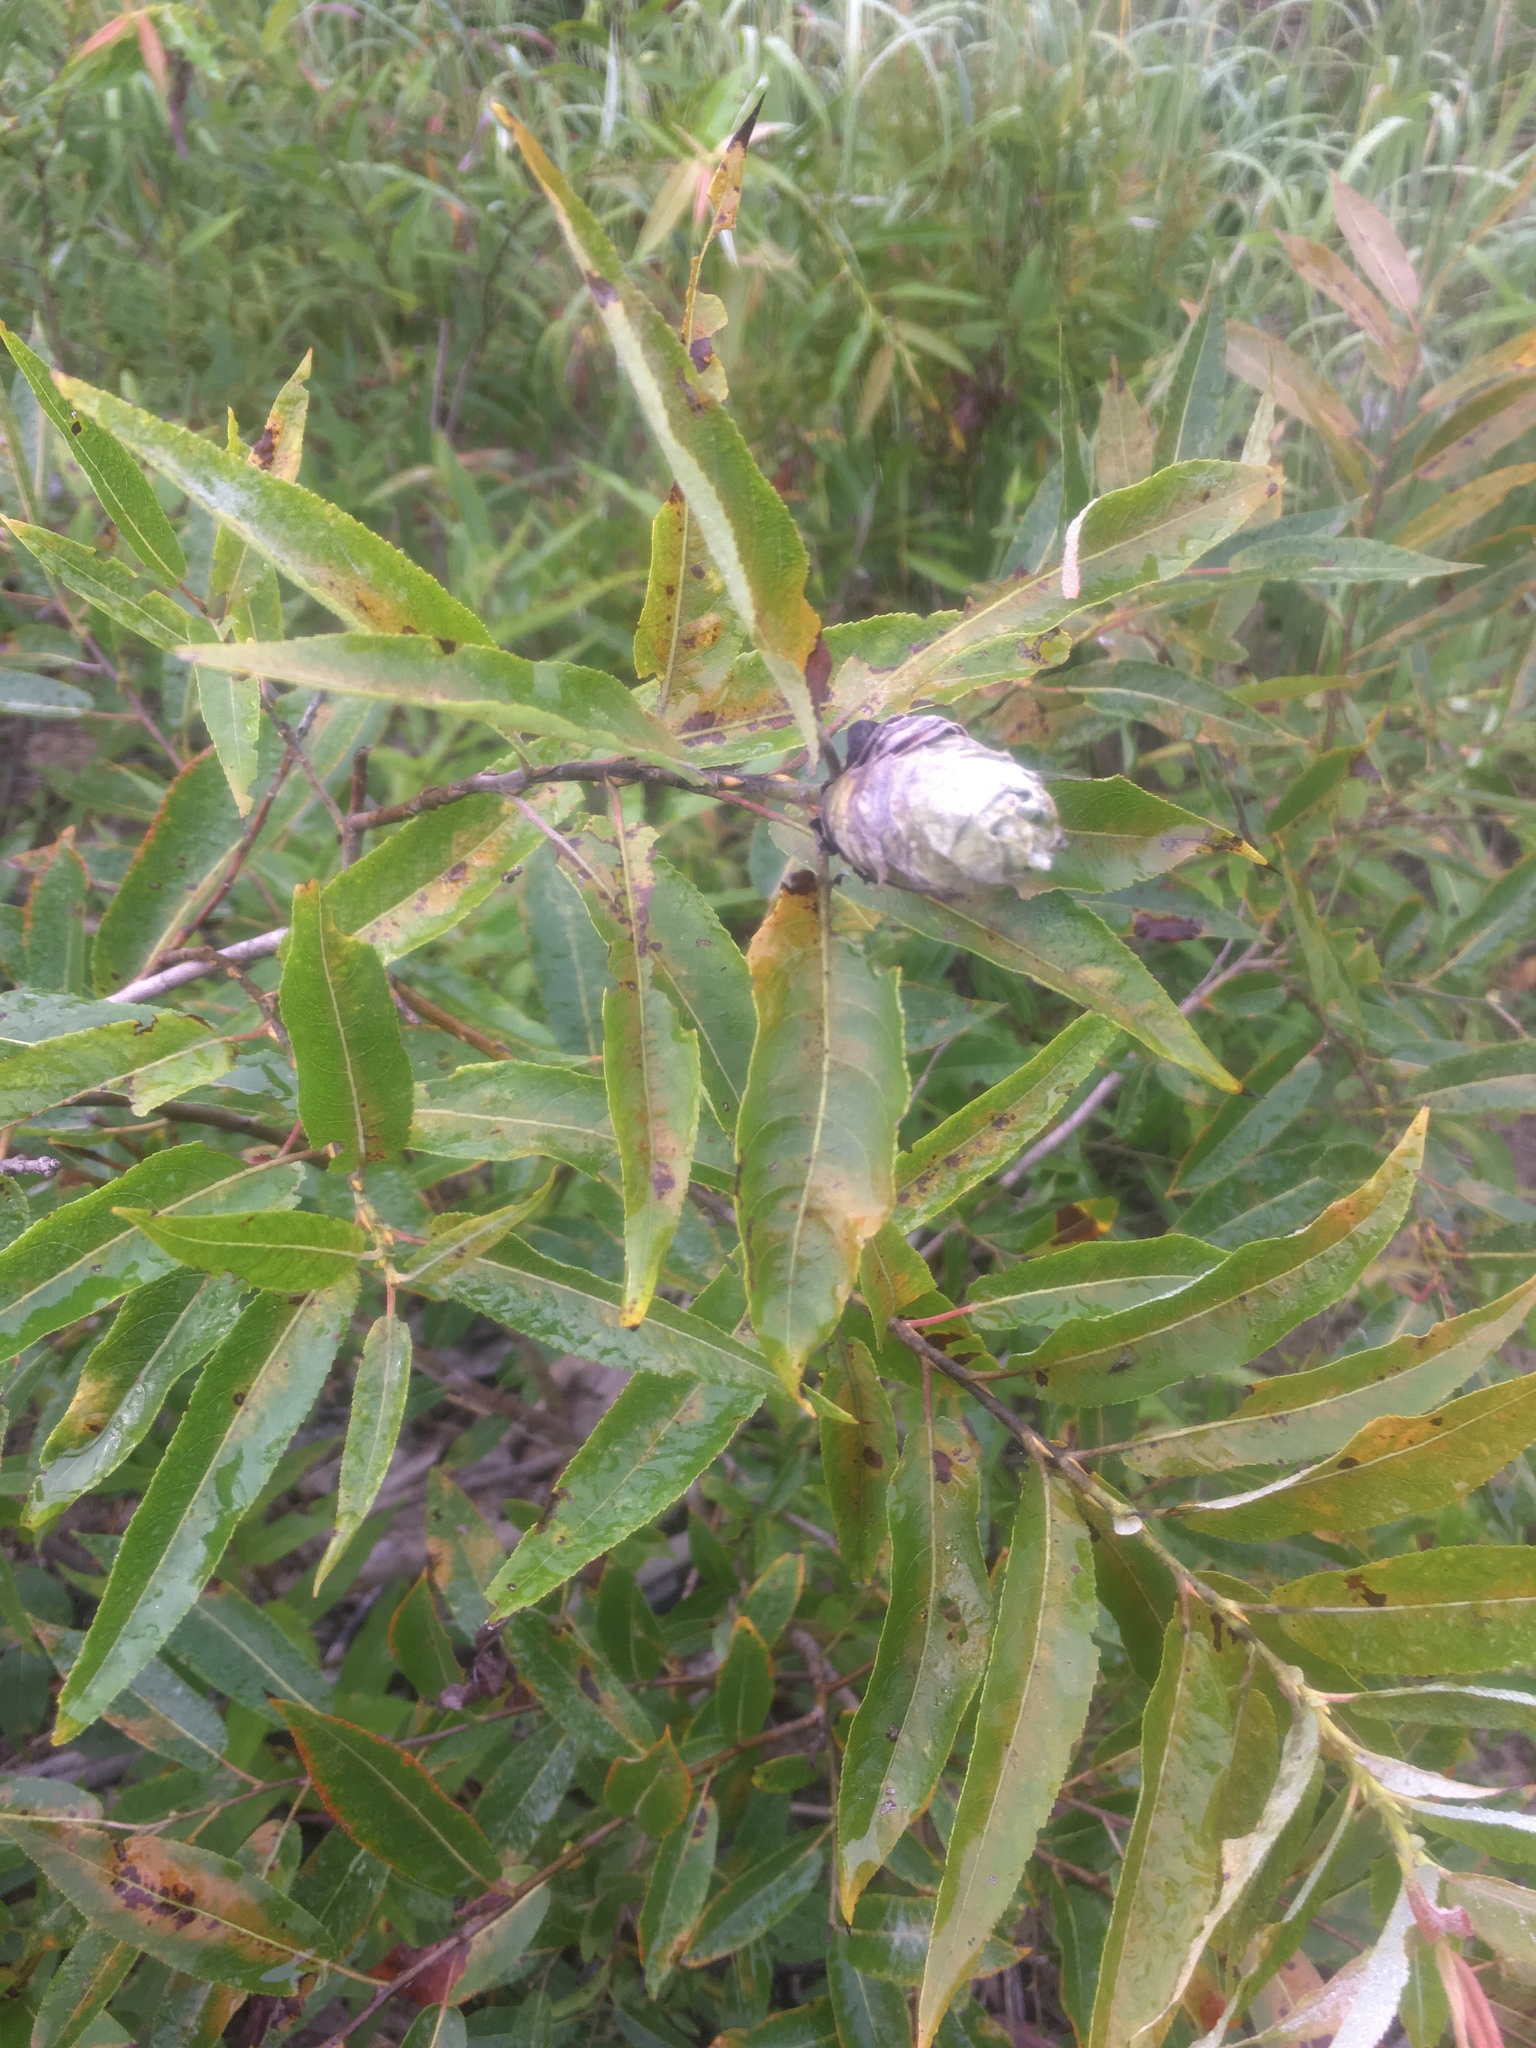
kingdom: Animalia
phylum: Arthropoda
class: Insecta
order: Diptera
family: Cecidomyiidae
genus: Rabdophaga
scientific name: Rabdophaga strobiloides
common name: Willow pinecone gall midge
